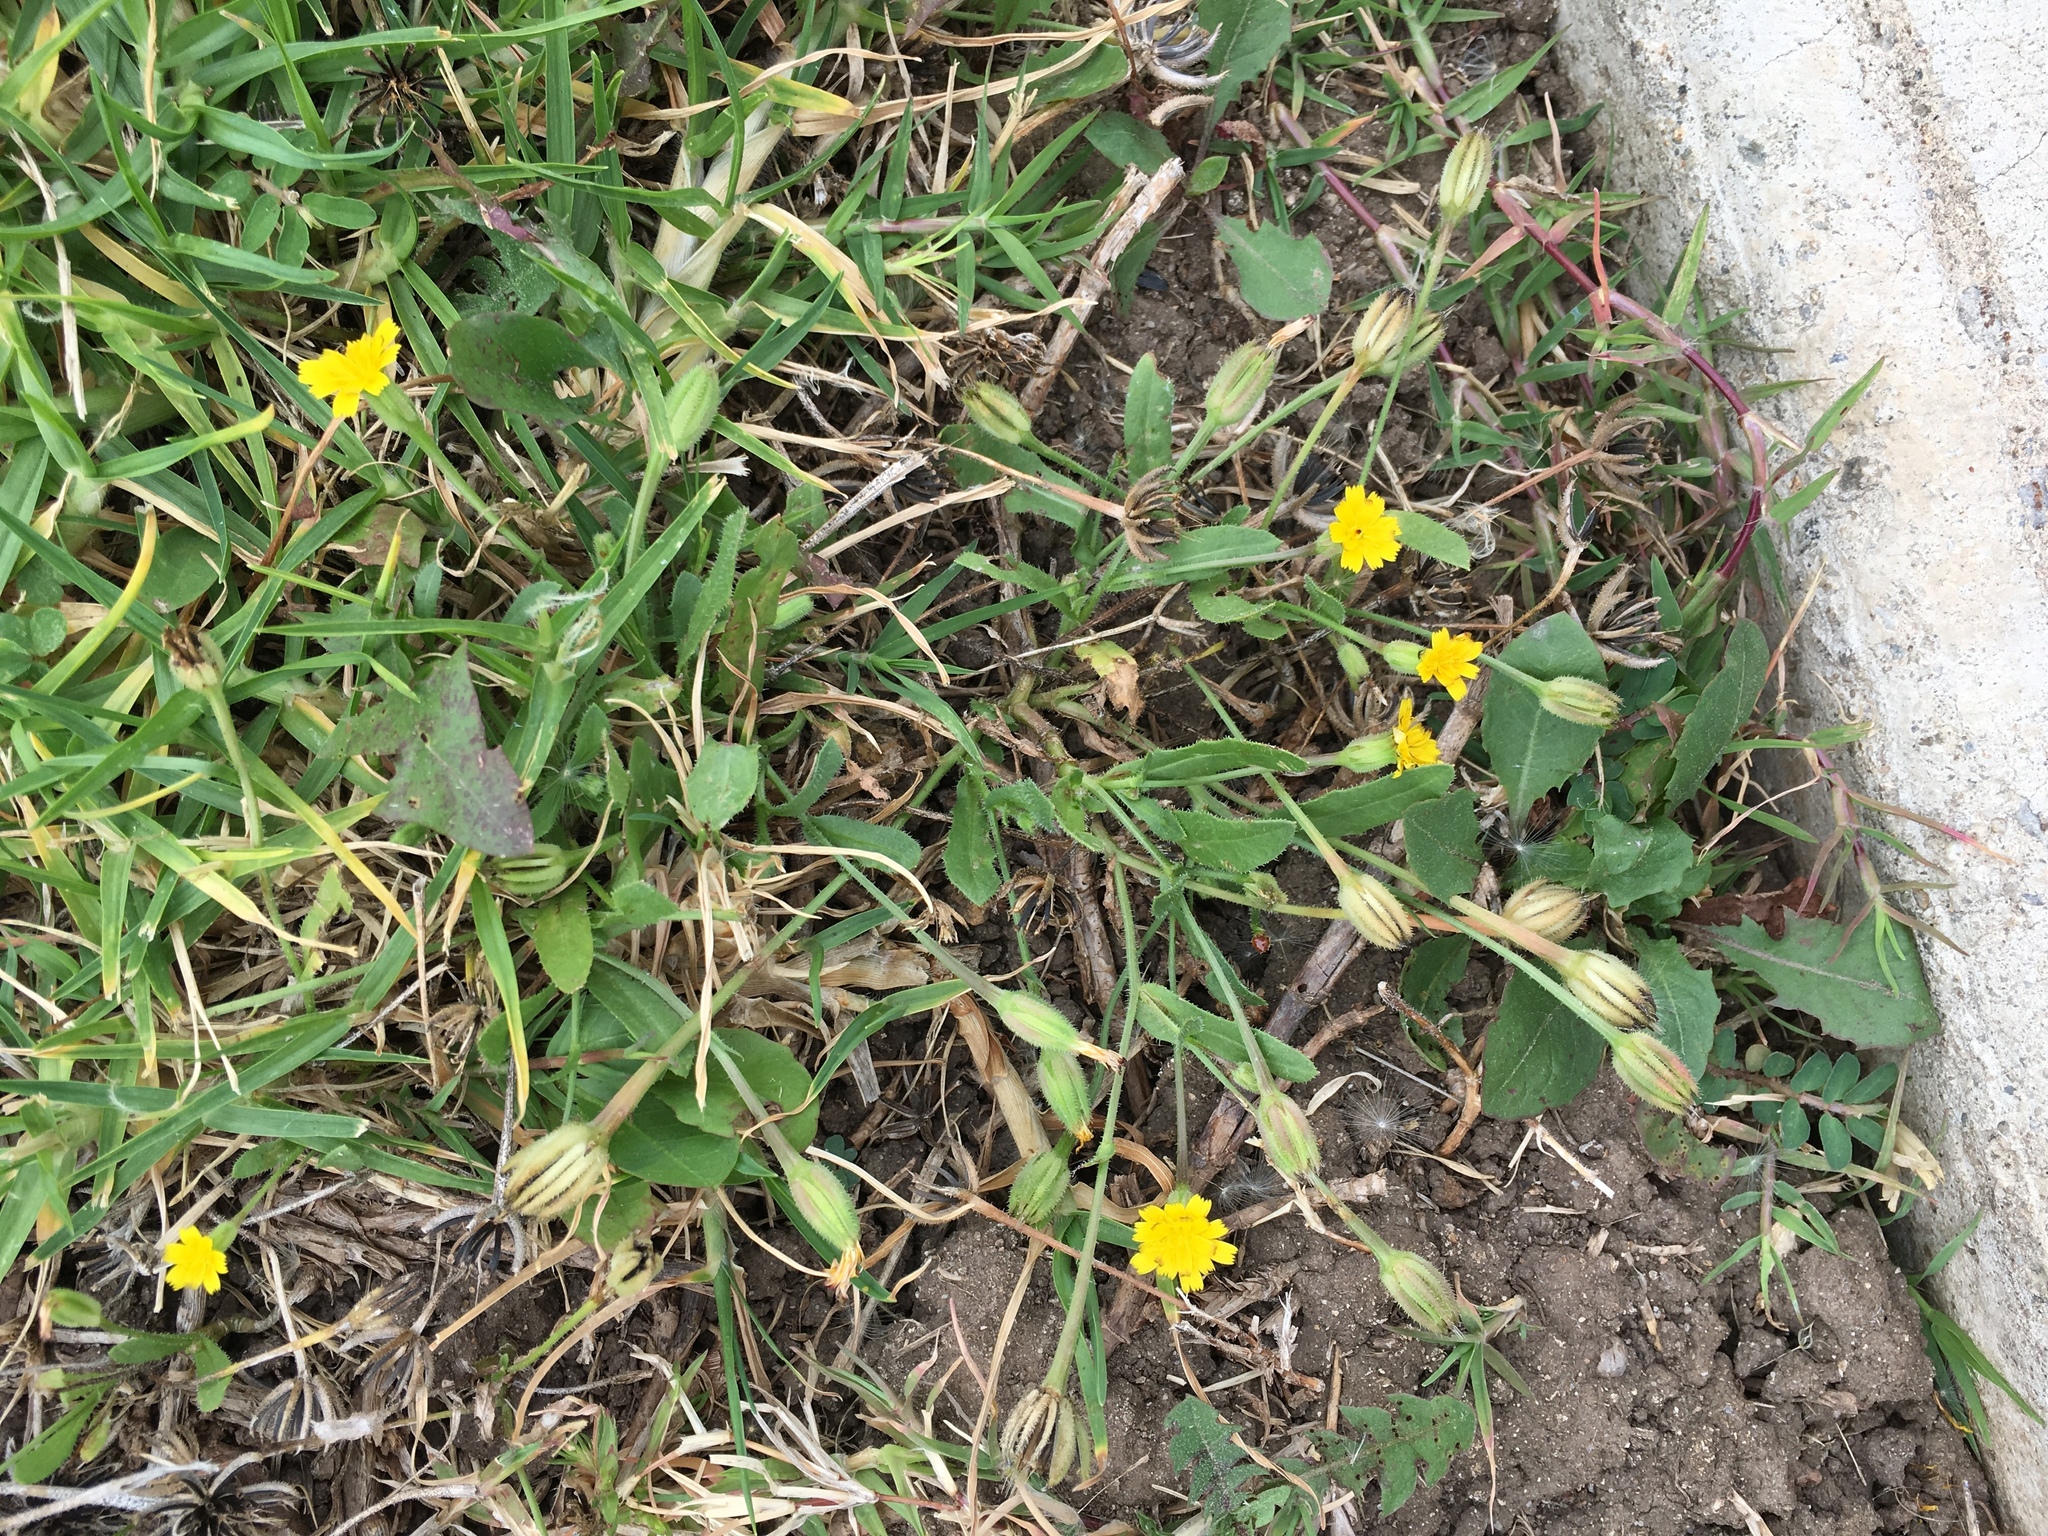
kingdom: Plantae
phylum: Tracheophyta
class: Magnoliopsida
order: Asterales
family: Asteraceae
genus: Hedypnois
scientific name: Hedypnois rhagadioloides
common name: Cretan weed
